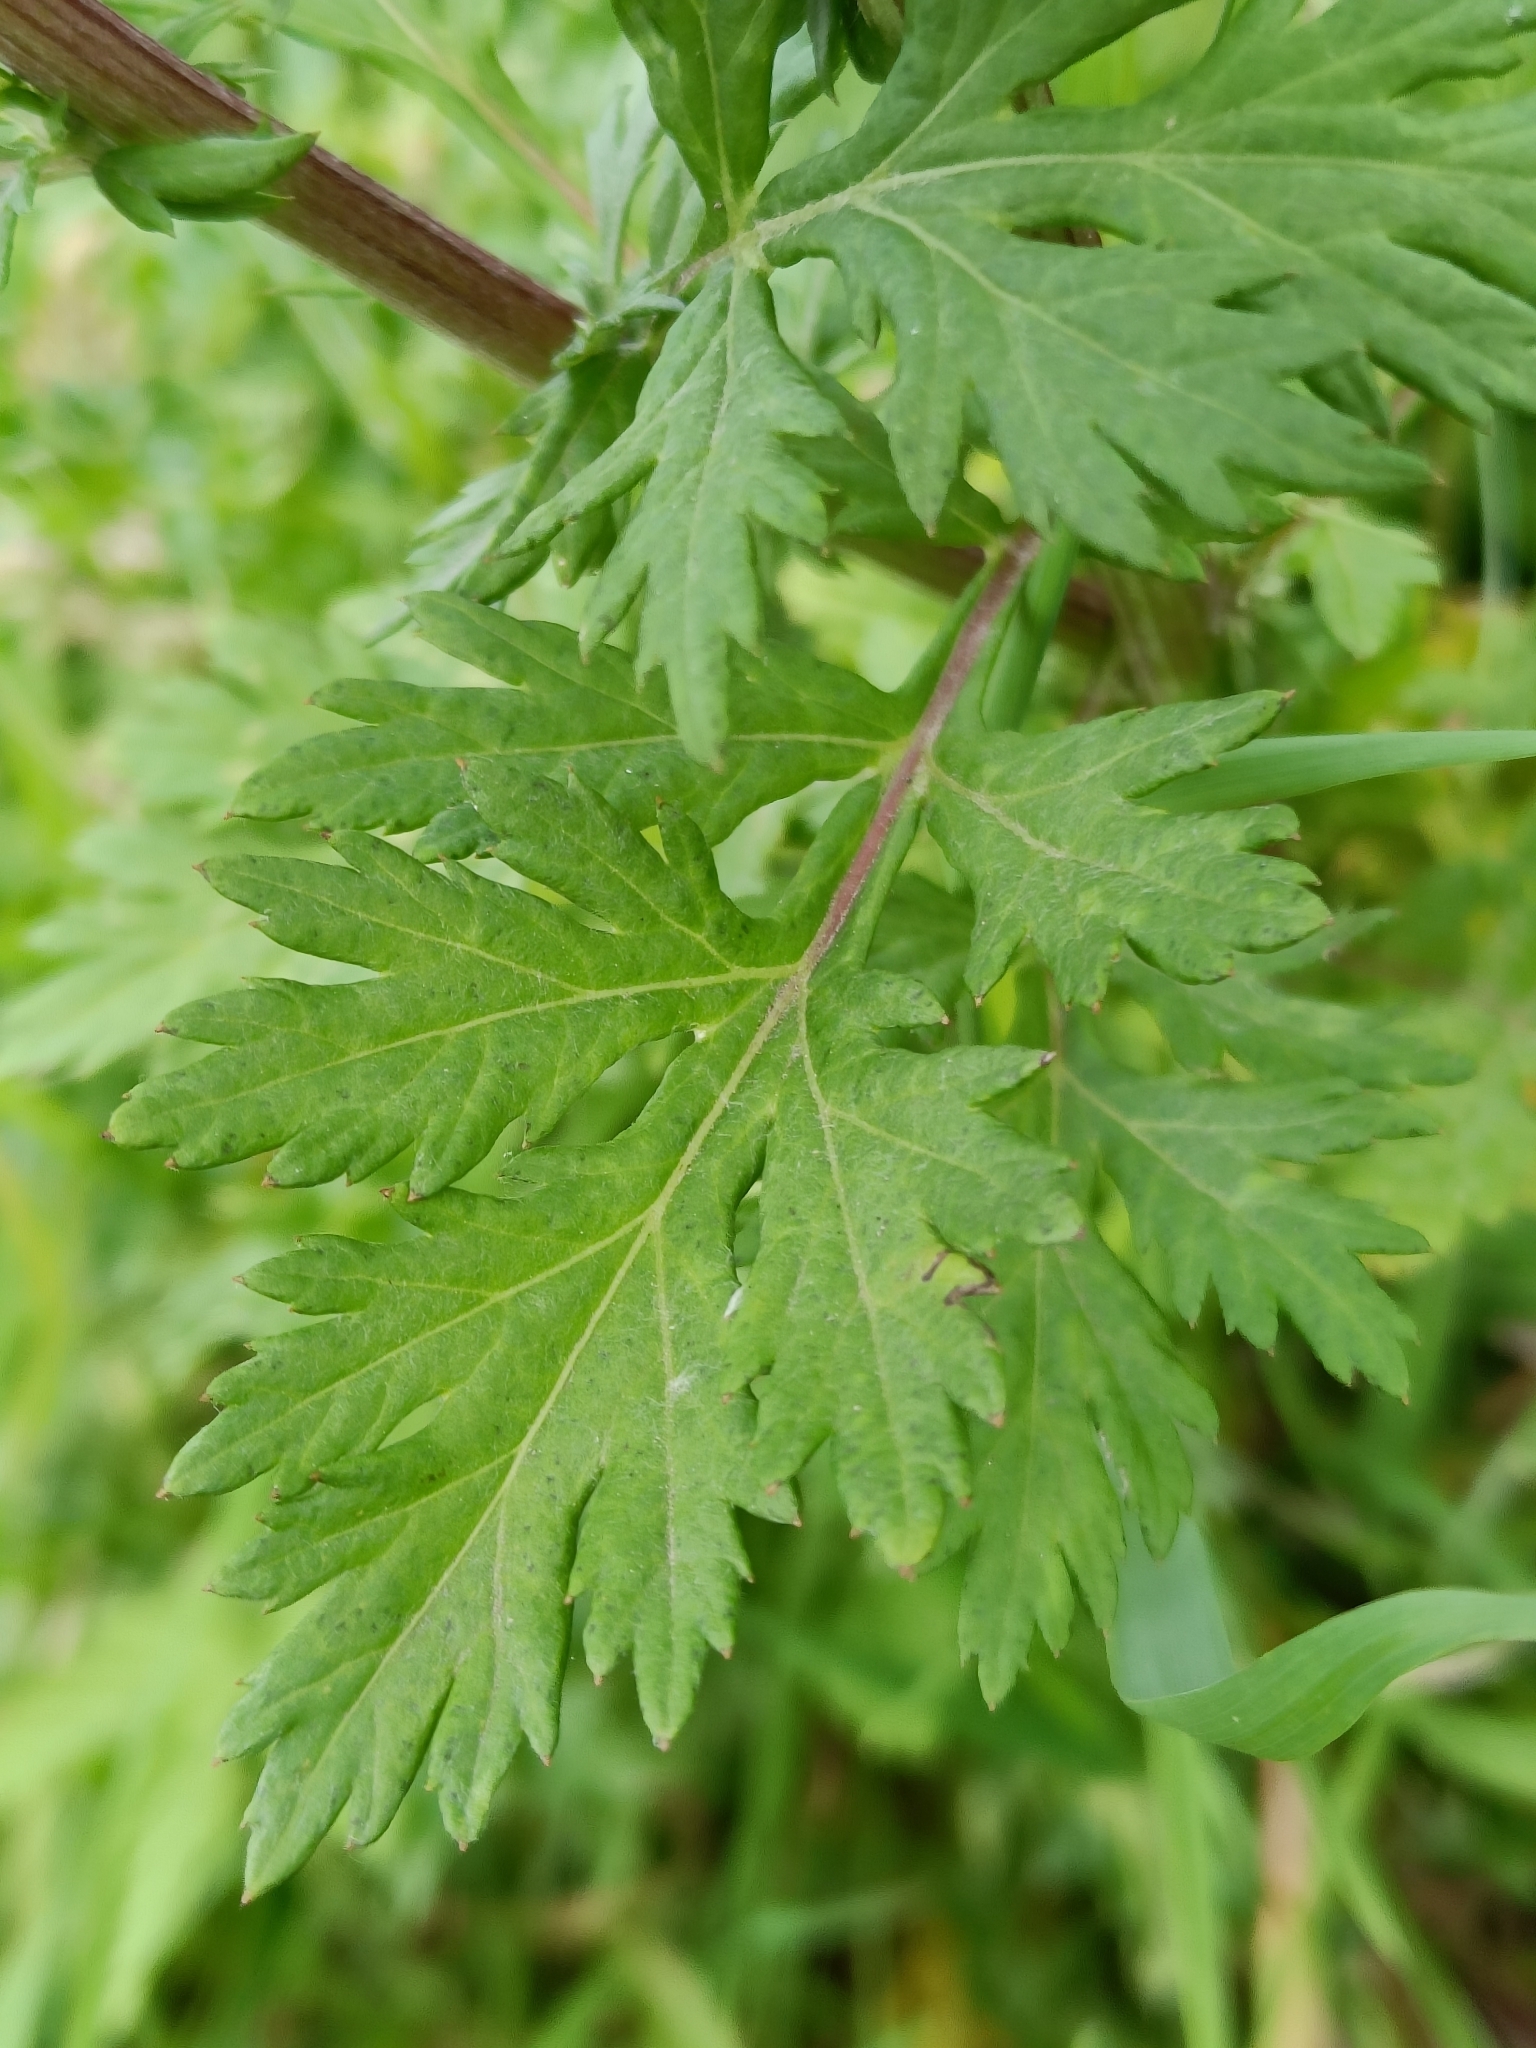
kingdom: Plantae
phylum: Tracheophyta
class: Magnoliopsida
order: Asterales
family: Asteraceae
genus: Artemisia
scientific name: Artemisia vulgaris
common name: Mugwort
